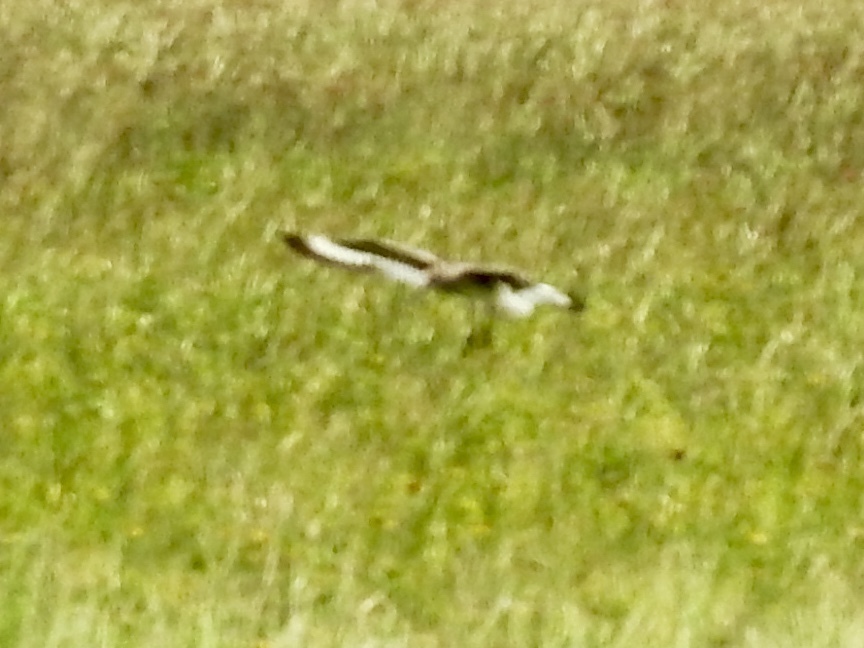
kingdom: Animalia
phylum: Chordata
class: Aves
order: Charadriiformes
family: Scolopacidae
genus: Tringa
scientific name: Tringa semipalmata
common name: Willet
